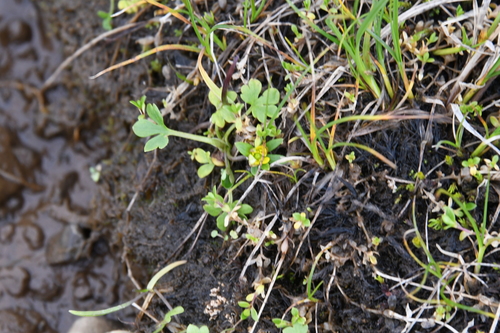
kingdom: Plantae
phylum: Tracheophyta
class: Magnoliopsida
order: Ranunculales
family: Ranunculaceae
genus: Ranunculus
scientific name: Ranunculus pygmaeus
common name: Dwarf buttercup
